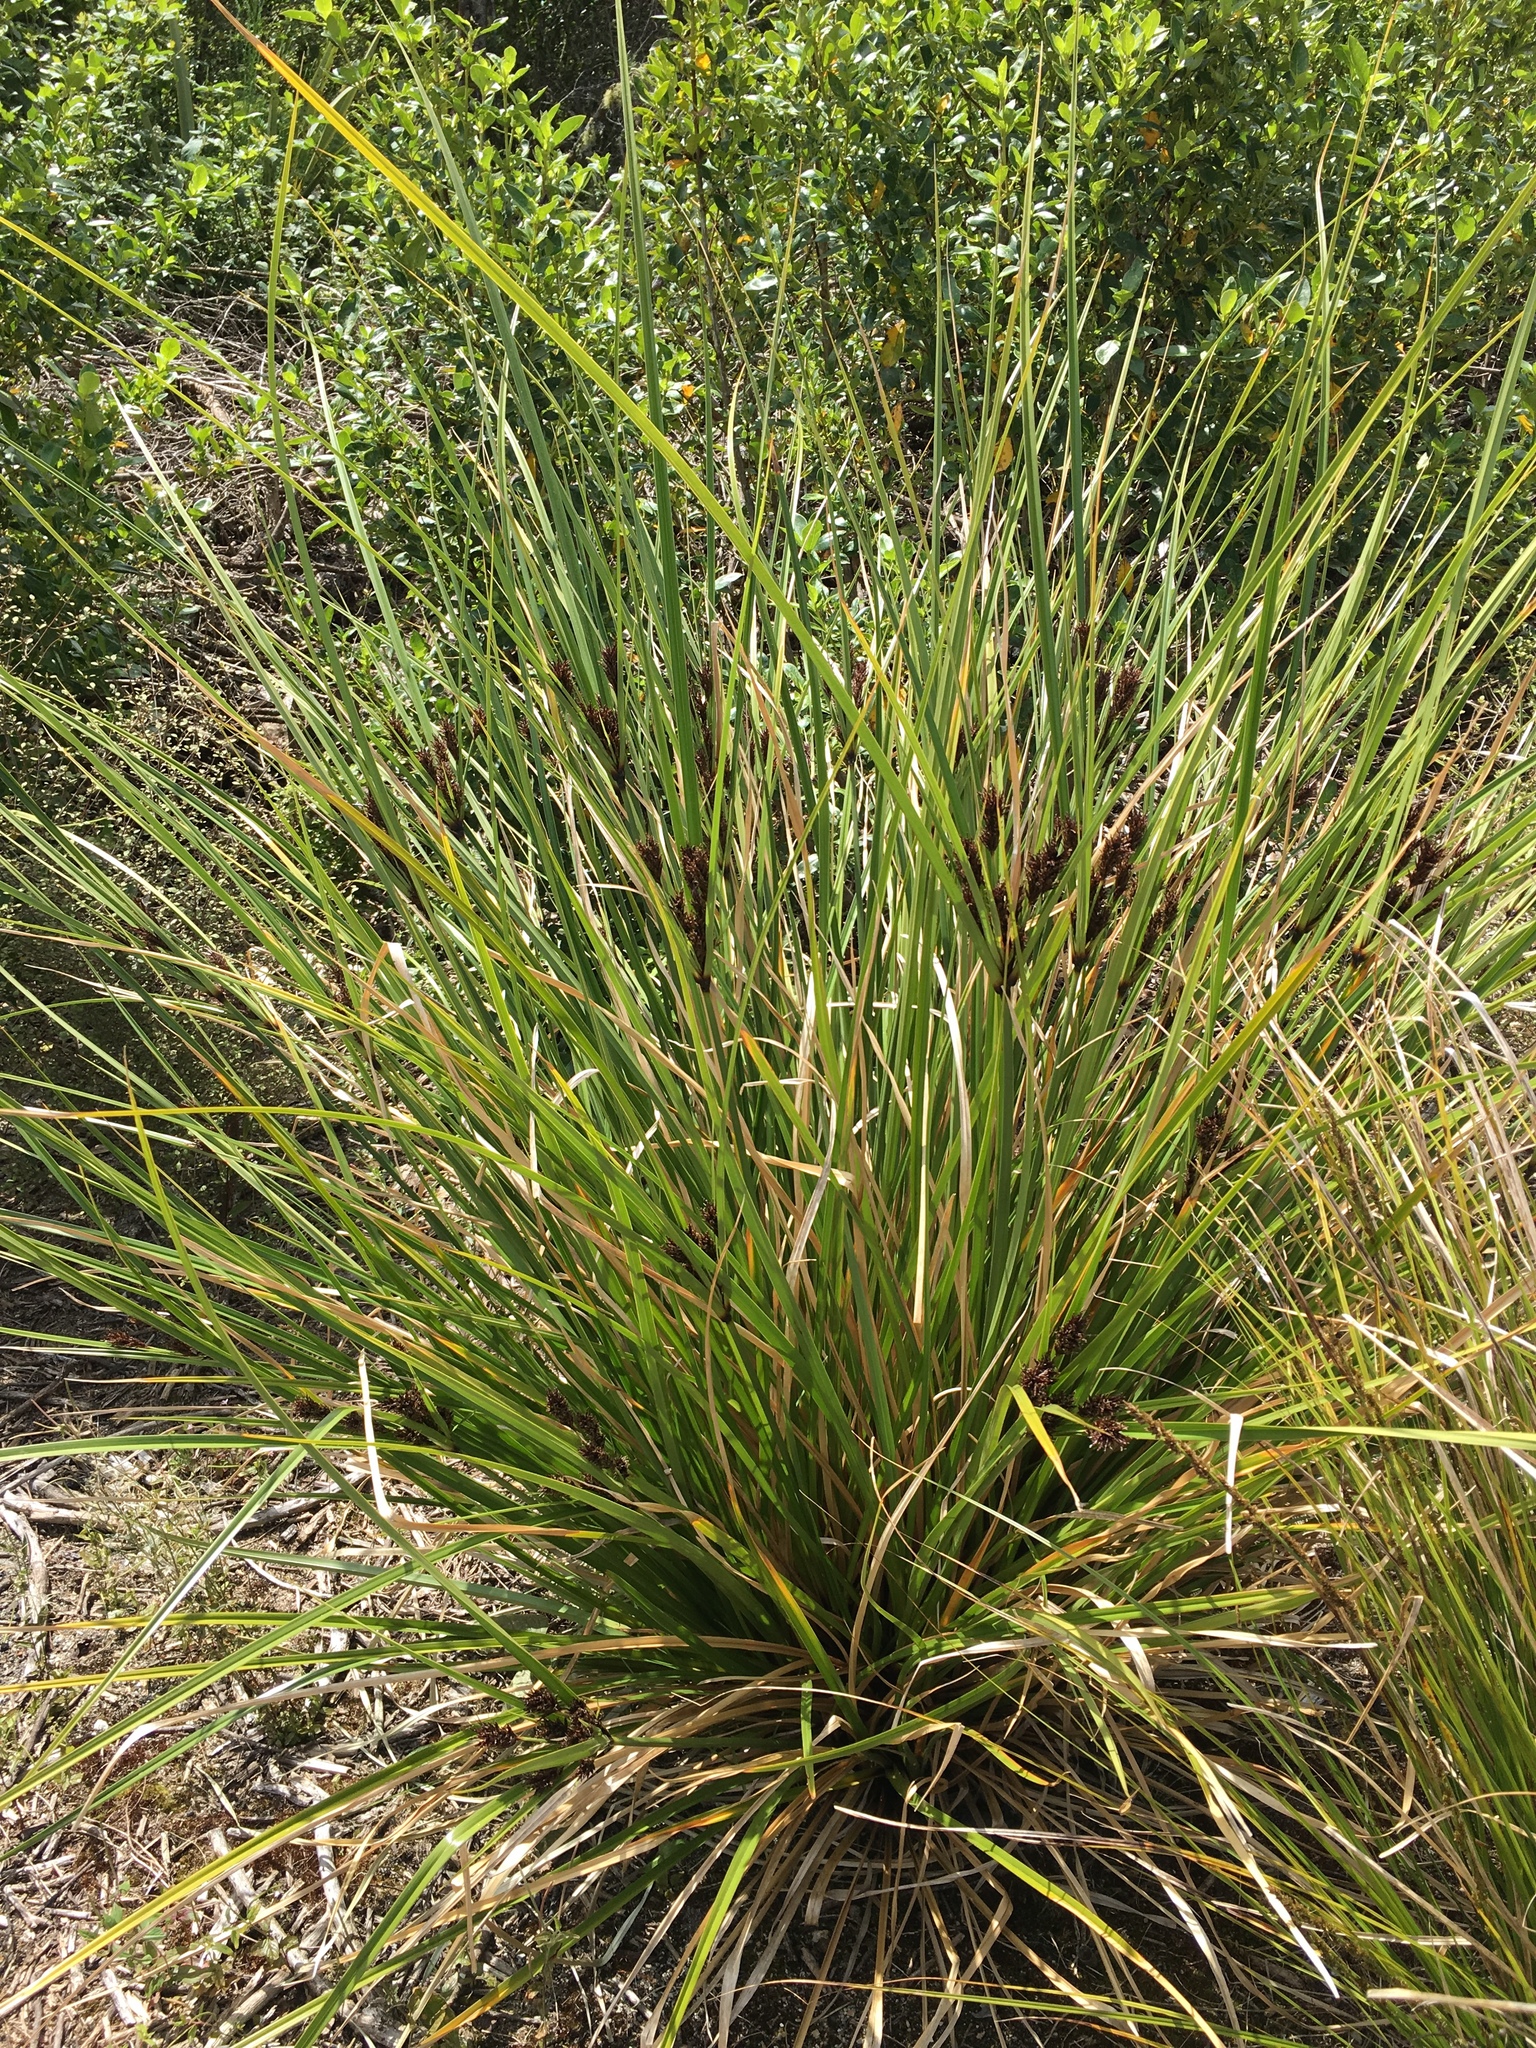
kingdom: Plantae
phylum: Tracheophyta
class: Liliopsida
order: Poales
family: Cyperaceae
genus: Cyperus
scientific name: Cyperus ustulatus
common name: Giant umbrella-sedge
